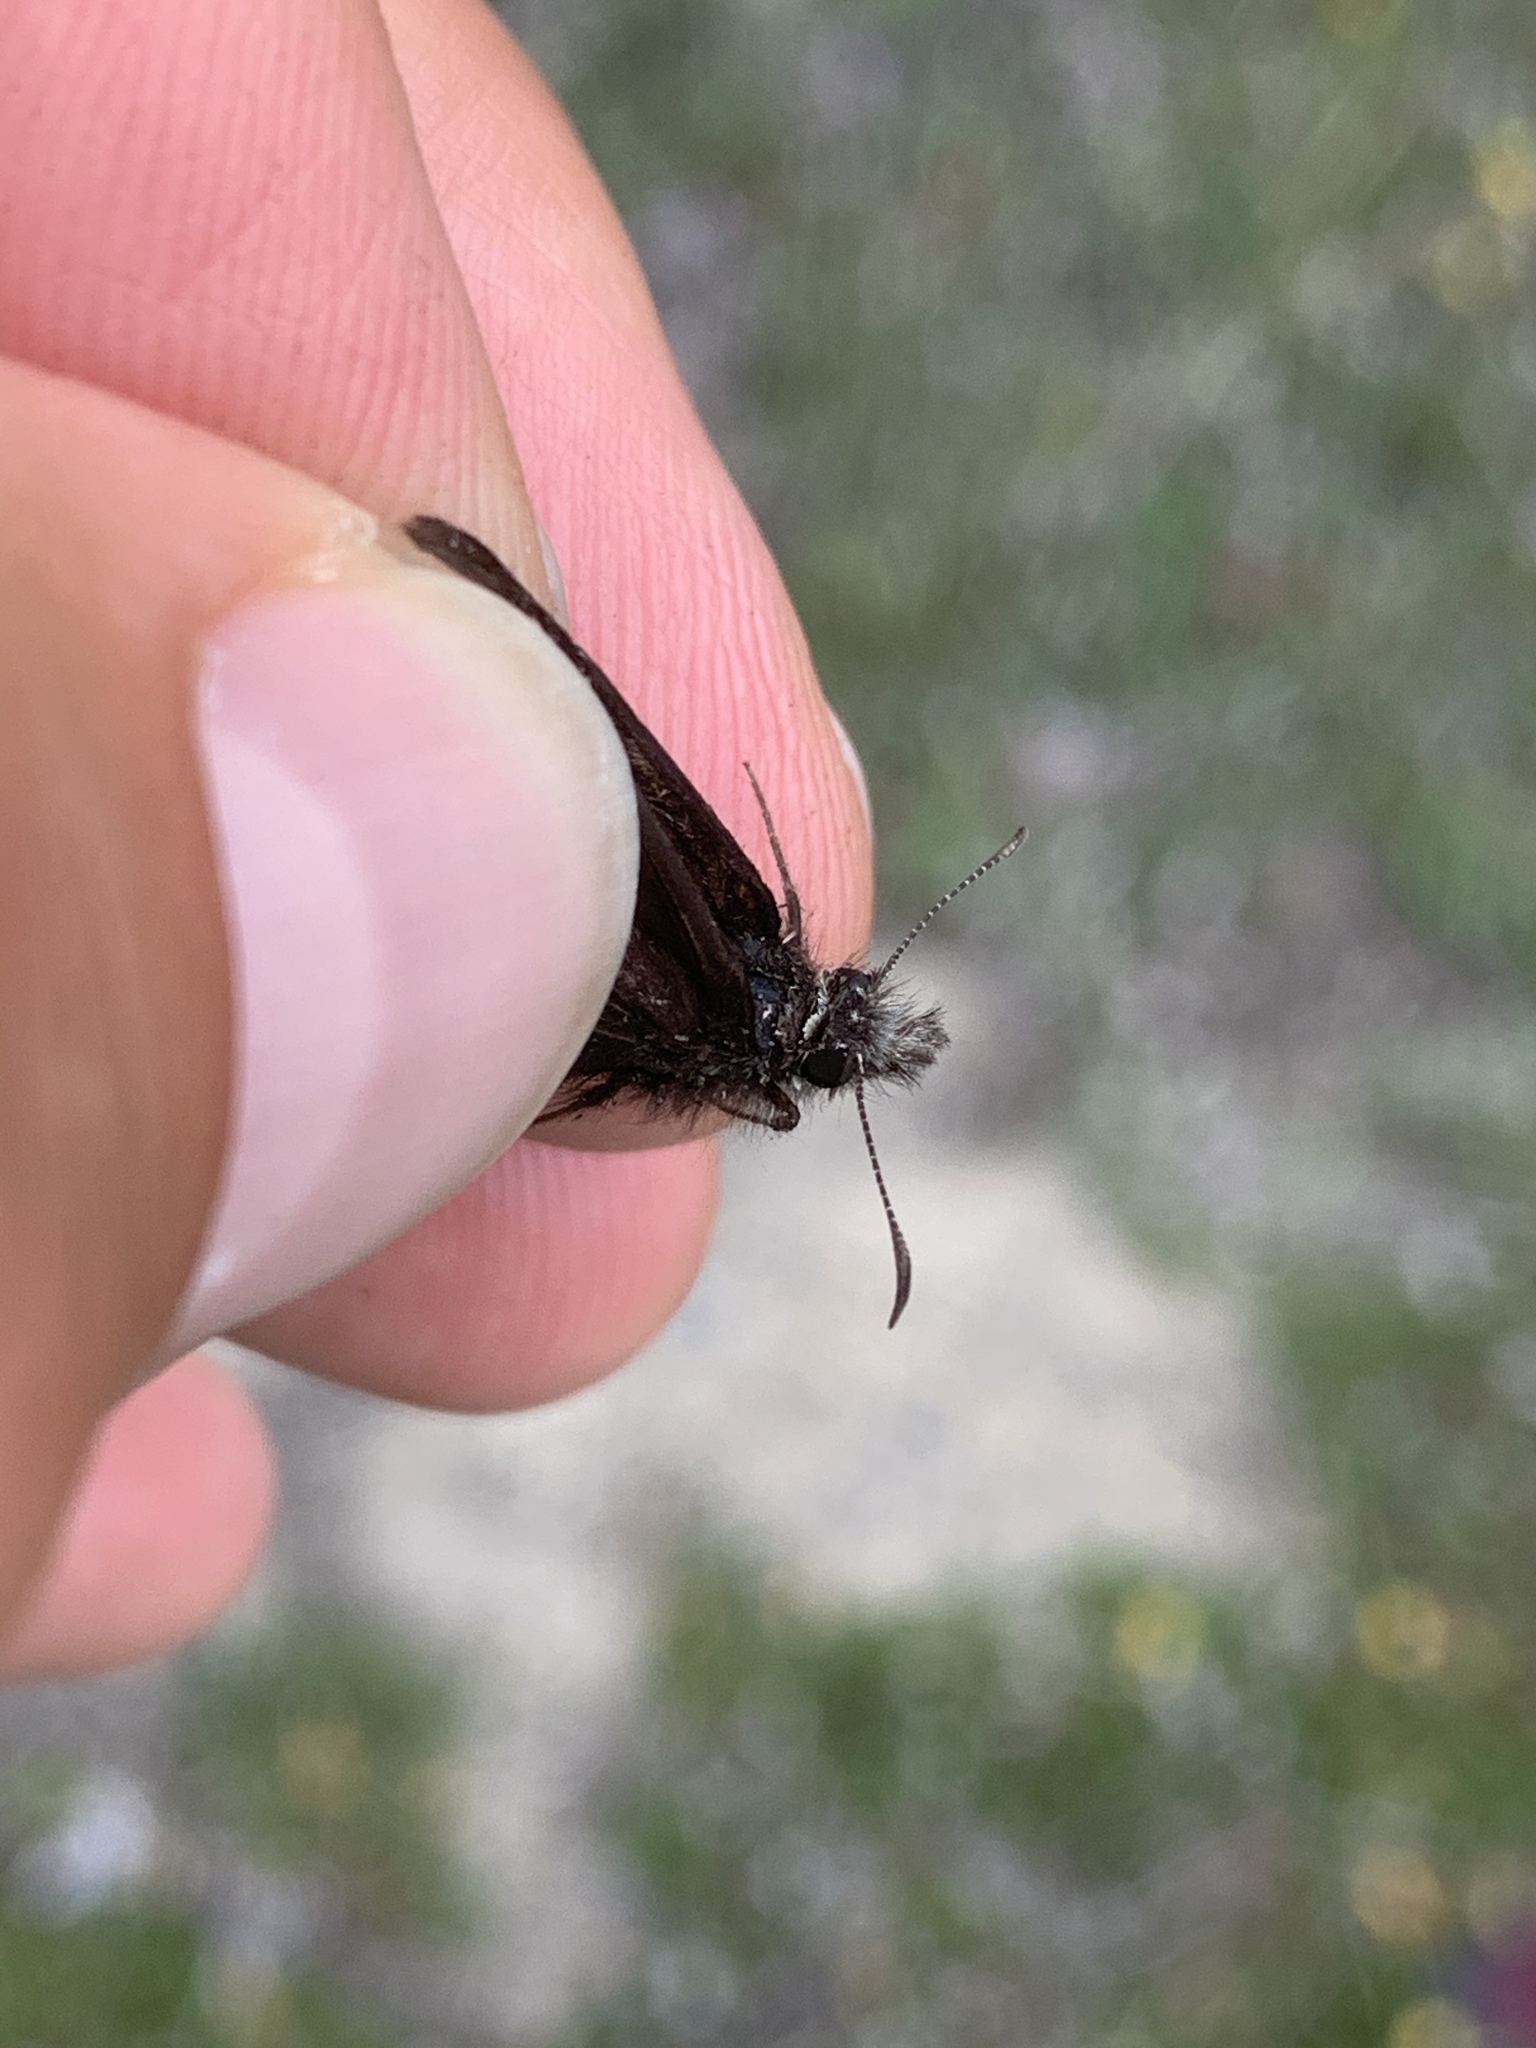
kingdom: Animalia
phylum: Arthropoda
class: Insecta
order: Lepidoptera
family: Hesperiidae
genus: Erynnis
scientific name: Erynnis persius
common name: Persius duskywing
